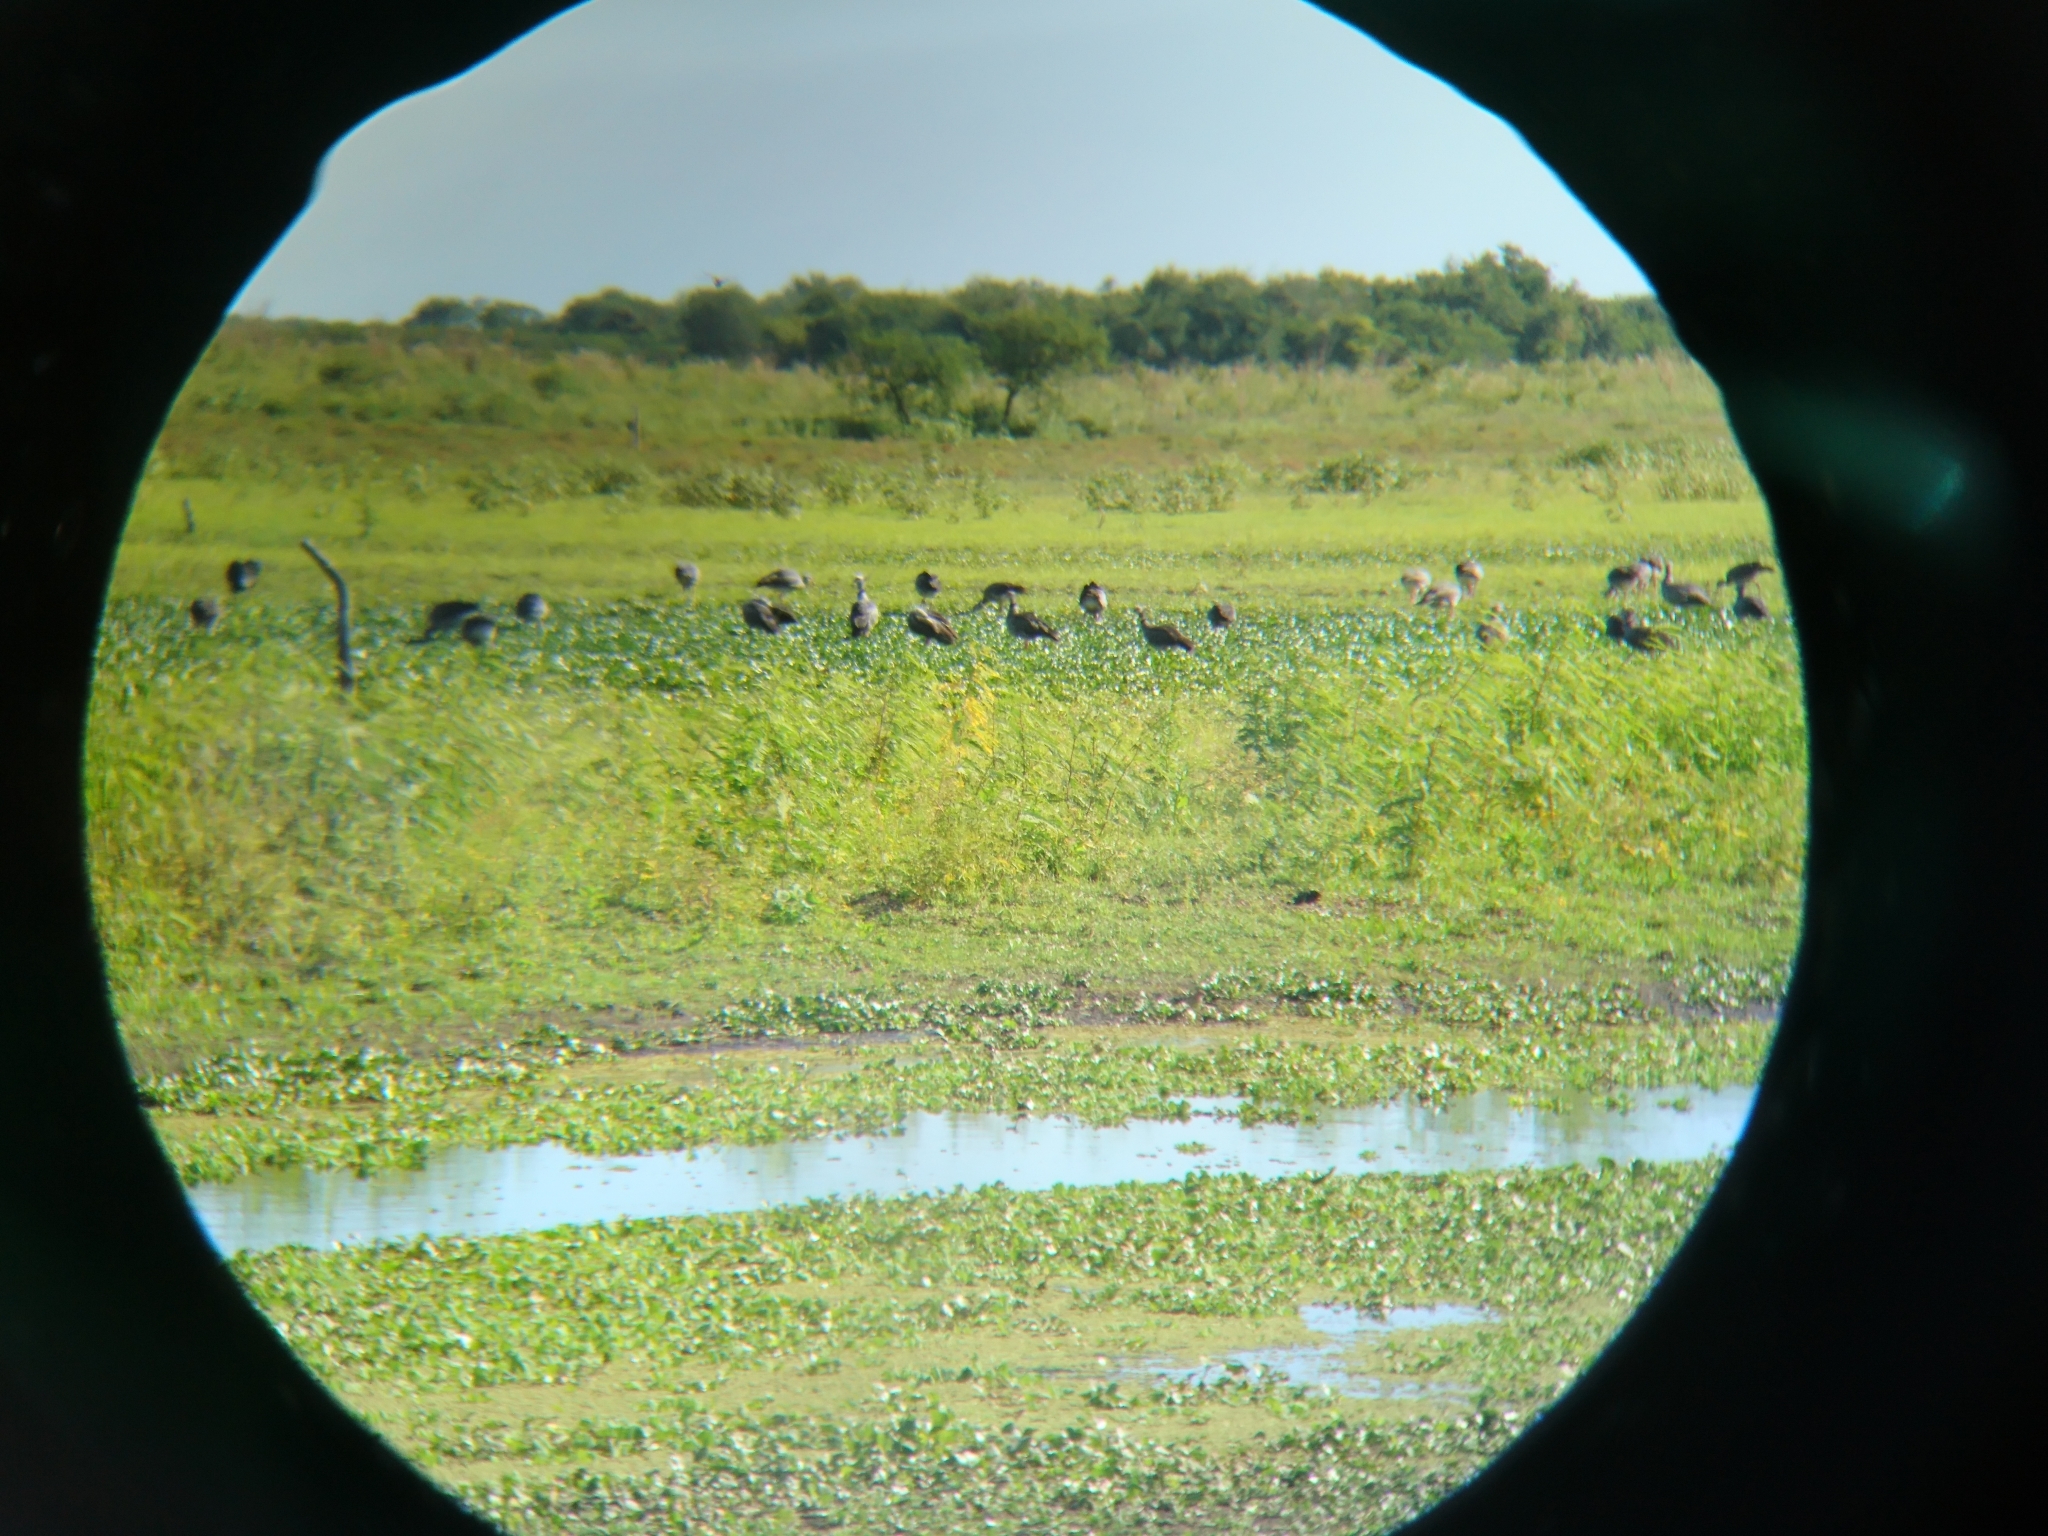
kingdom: Animalia
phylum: Chordata
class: Aves
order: Anseriformes
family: Anhimidae
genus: Chauna
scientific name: Chauna torquata
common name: Southern screamer
